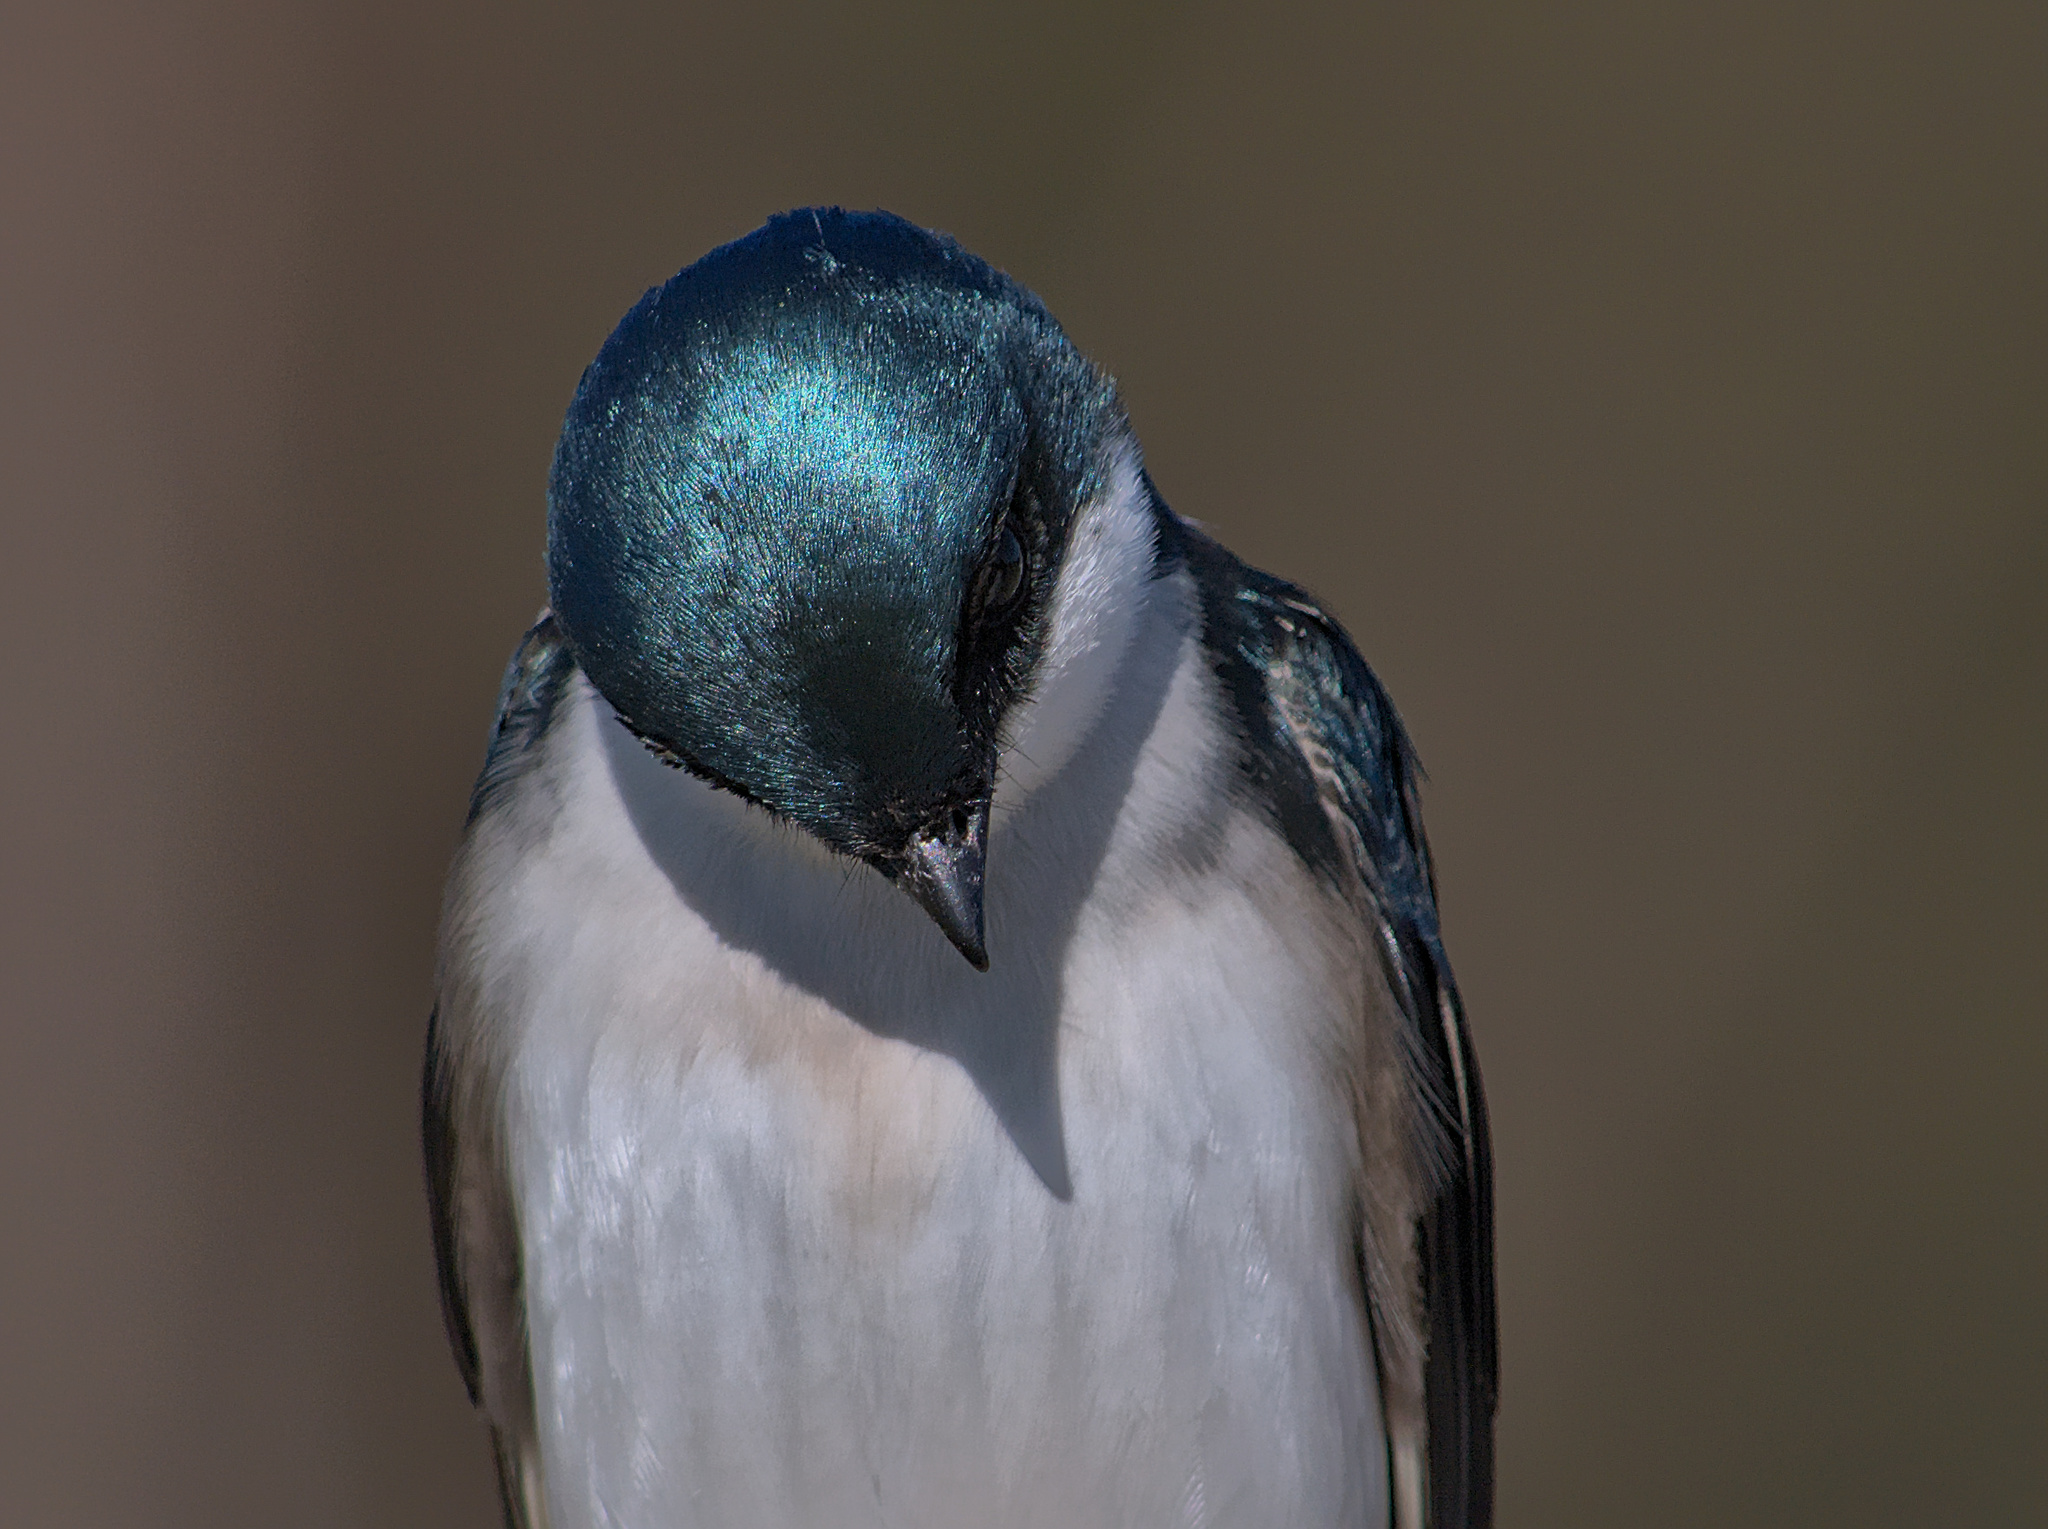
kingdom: Animalia
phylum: Chordata
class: Aves
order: Passeriformes
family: Hirundinidae
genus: Tachycineta
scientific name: Tachycineta bicolor
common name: Tree swallow
